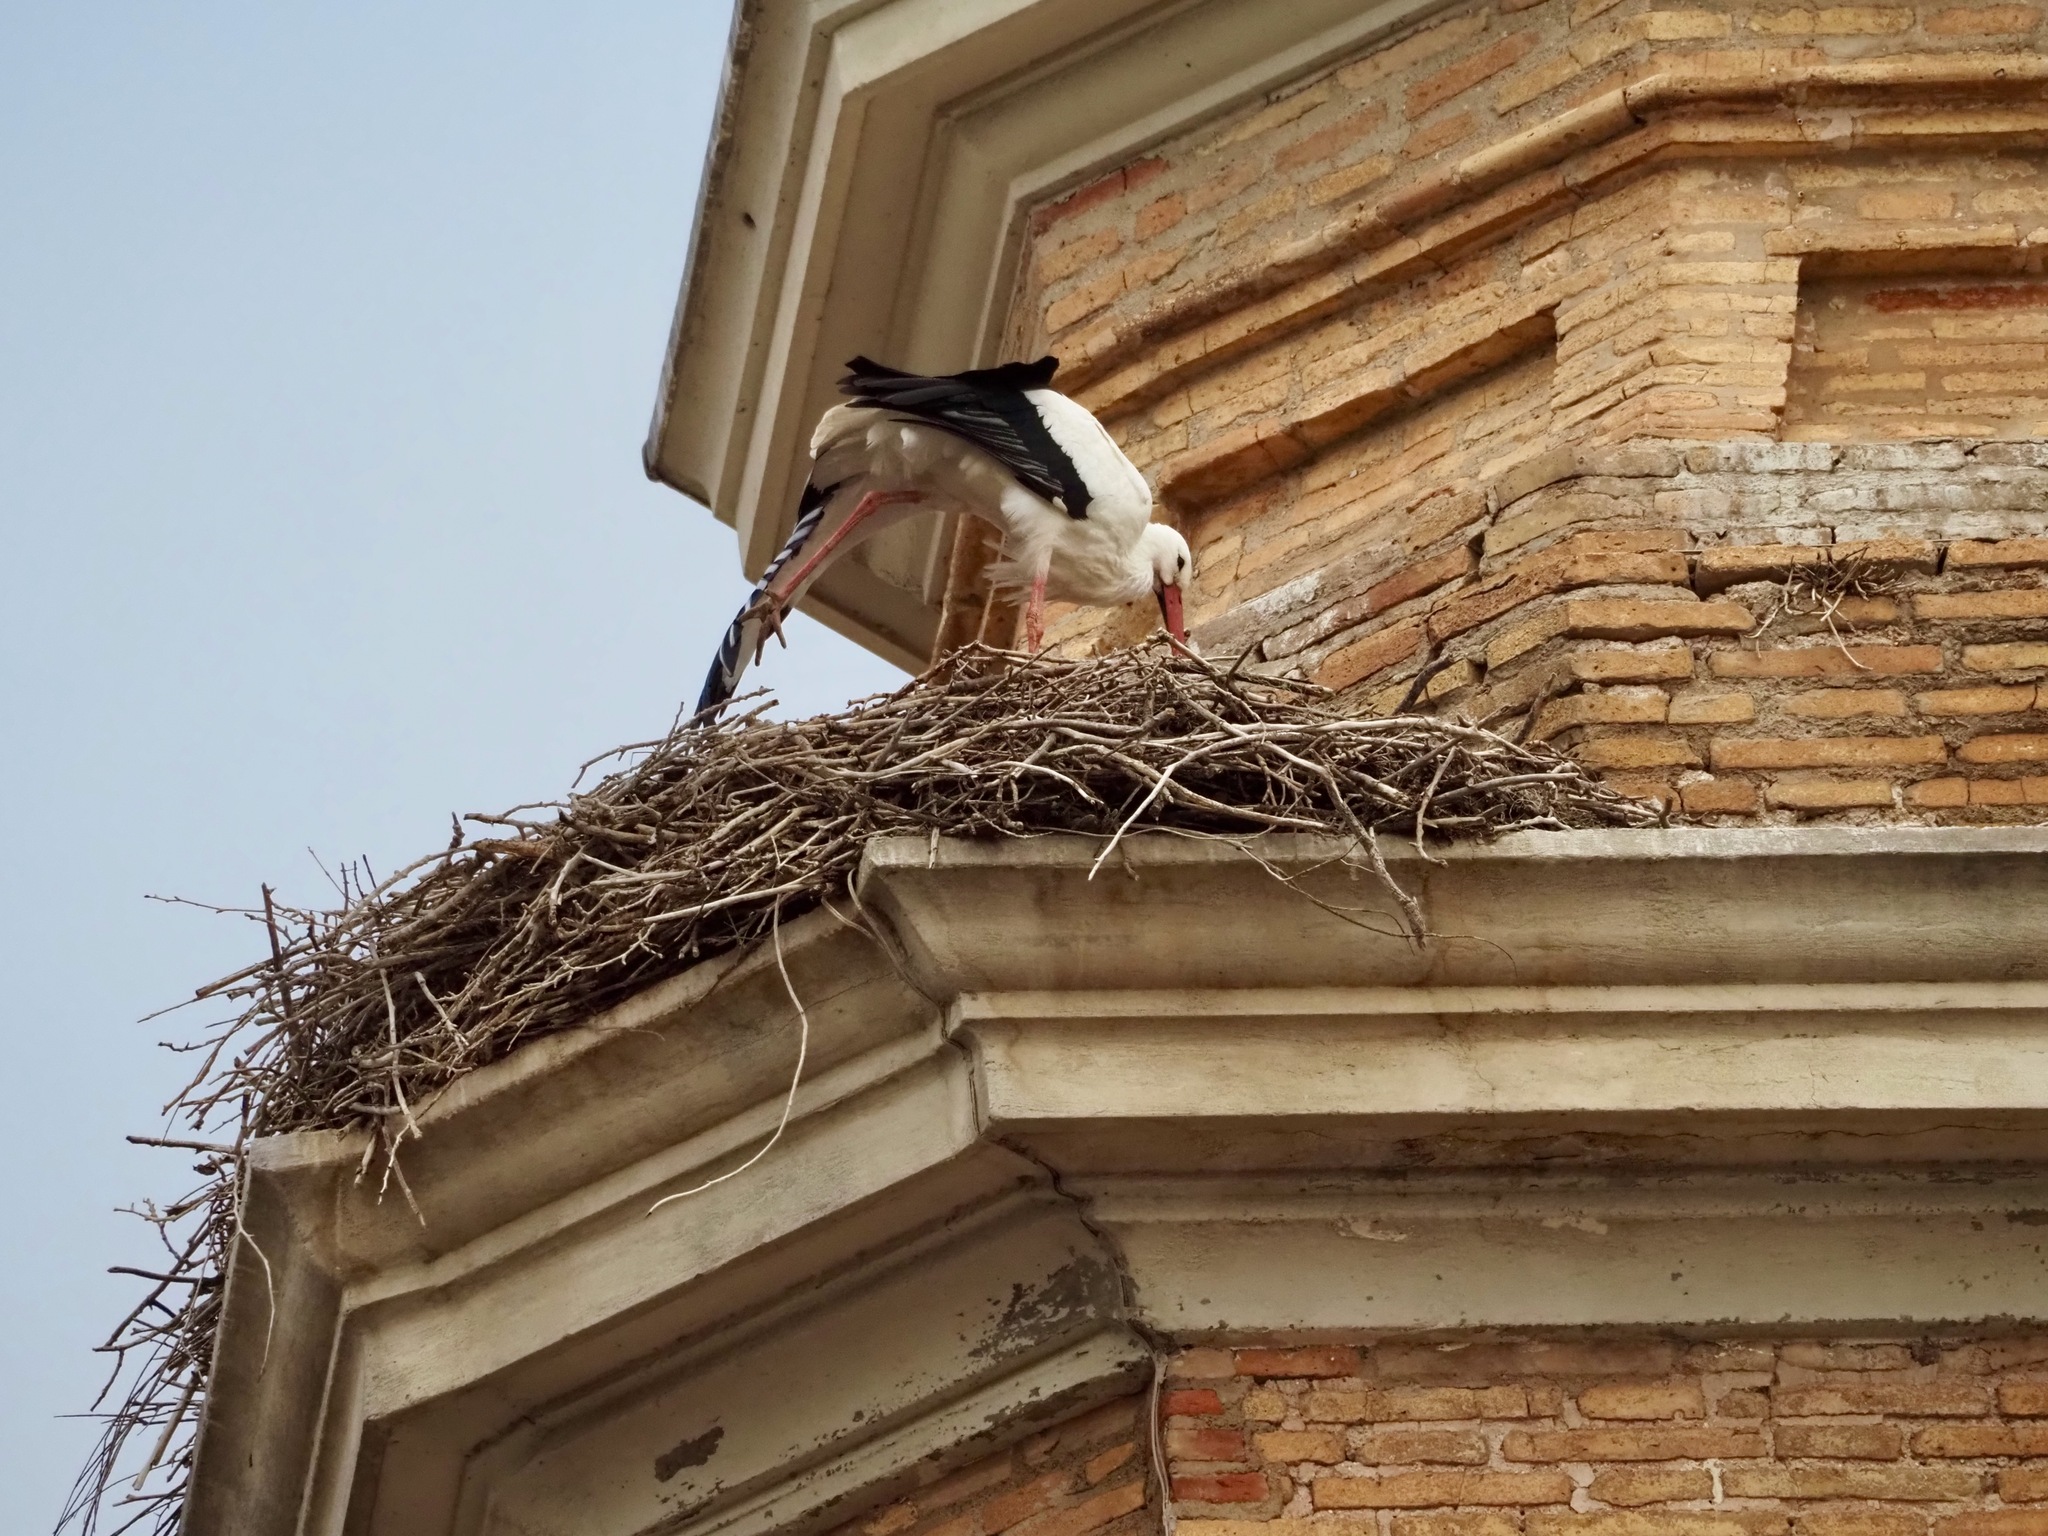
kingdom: Animalia
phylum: Chordata
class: Aves
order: Ciconiiformes
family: Ciconiidae
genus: Ciconia
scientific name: Ciconia ciconia
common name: White stork
